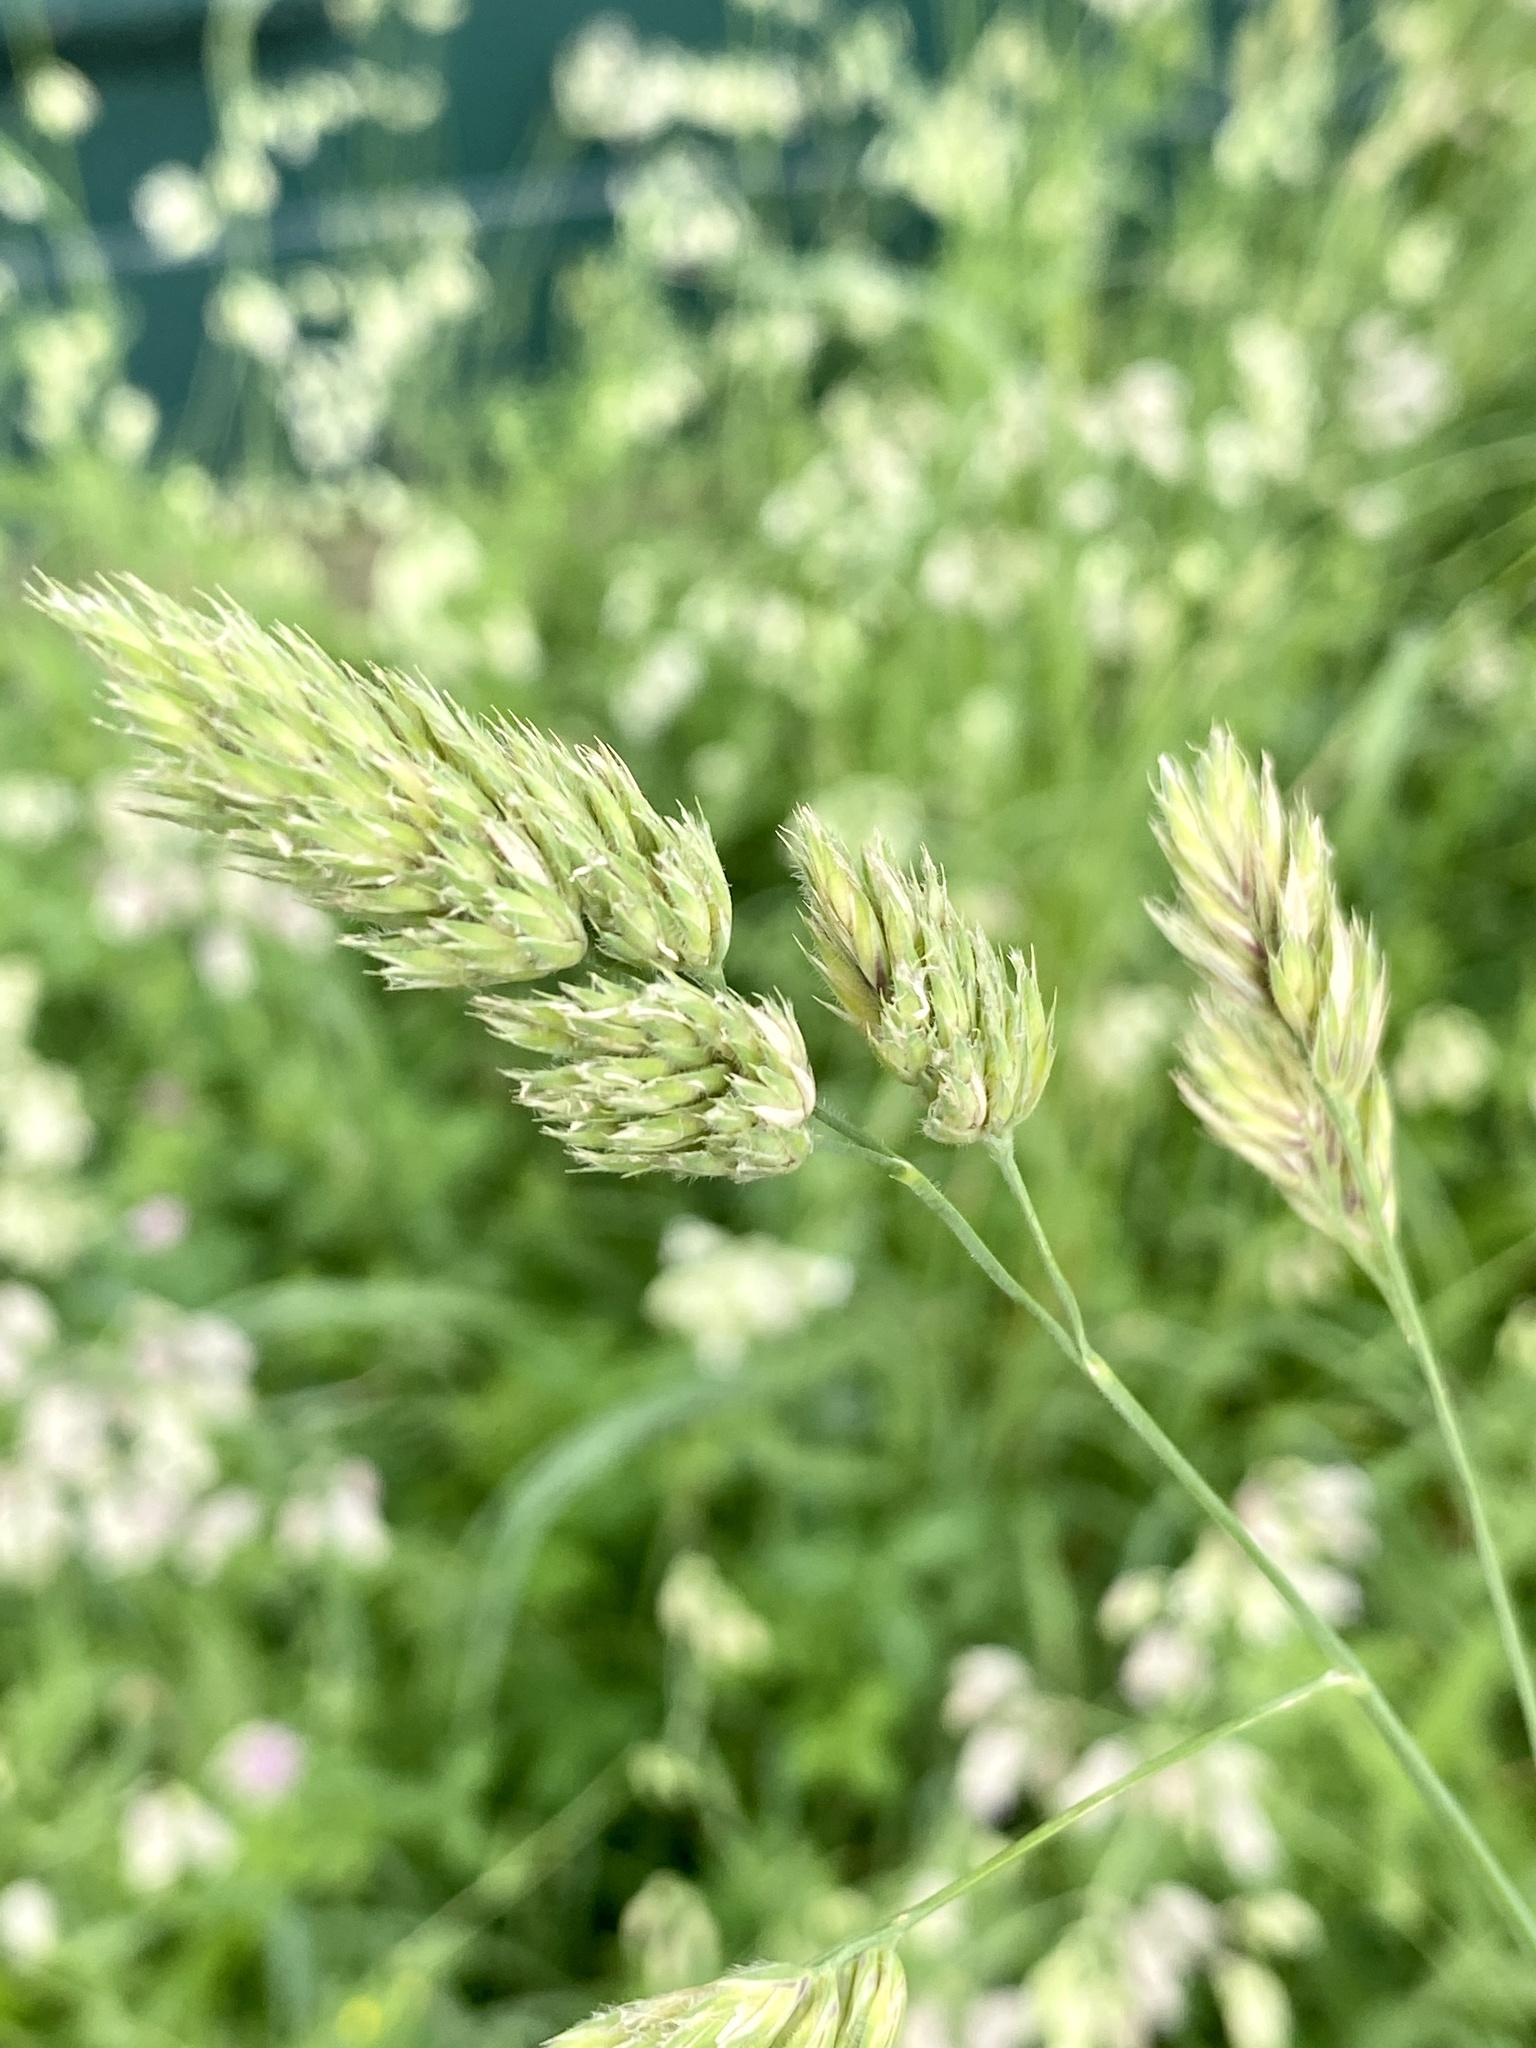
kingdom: Plantae
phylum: Tracheophyta
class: Liliopsida
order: Poales
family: Poaceae
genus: Dactylis
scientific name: Dactylis glomerata
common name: Orchardgrass
